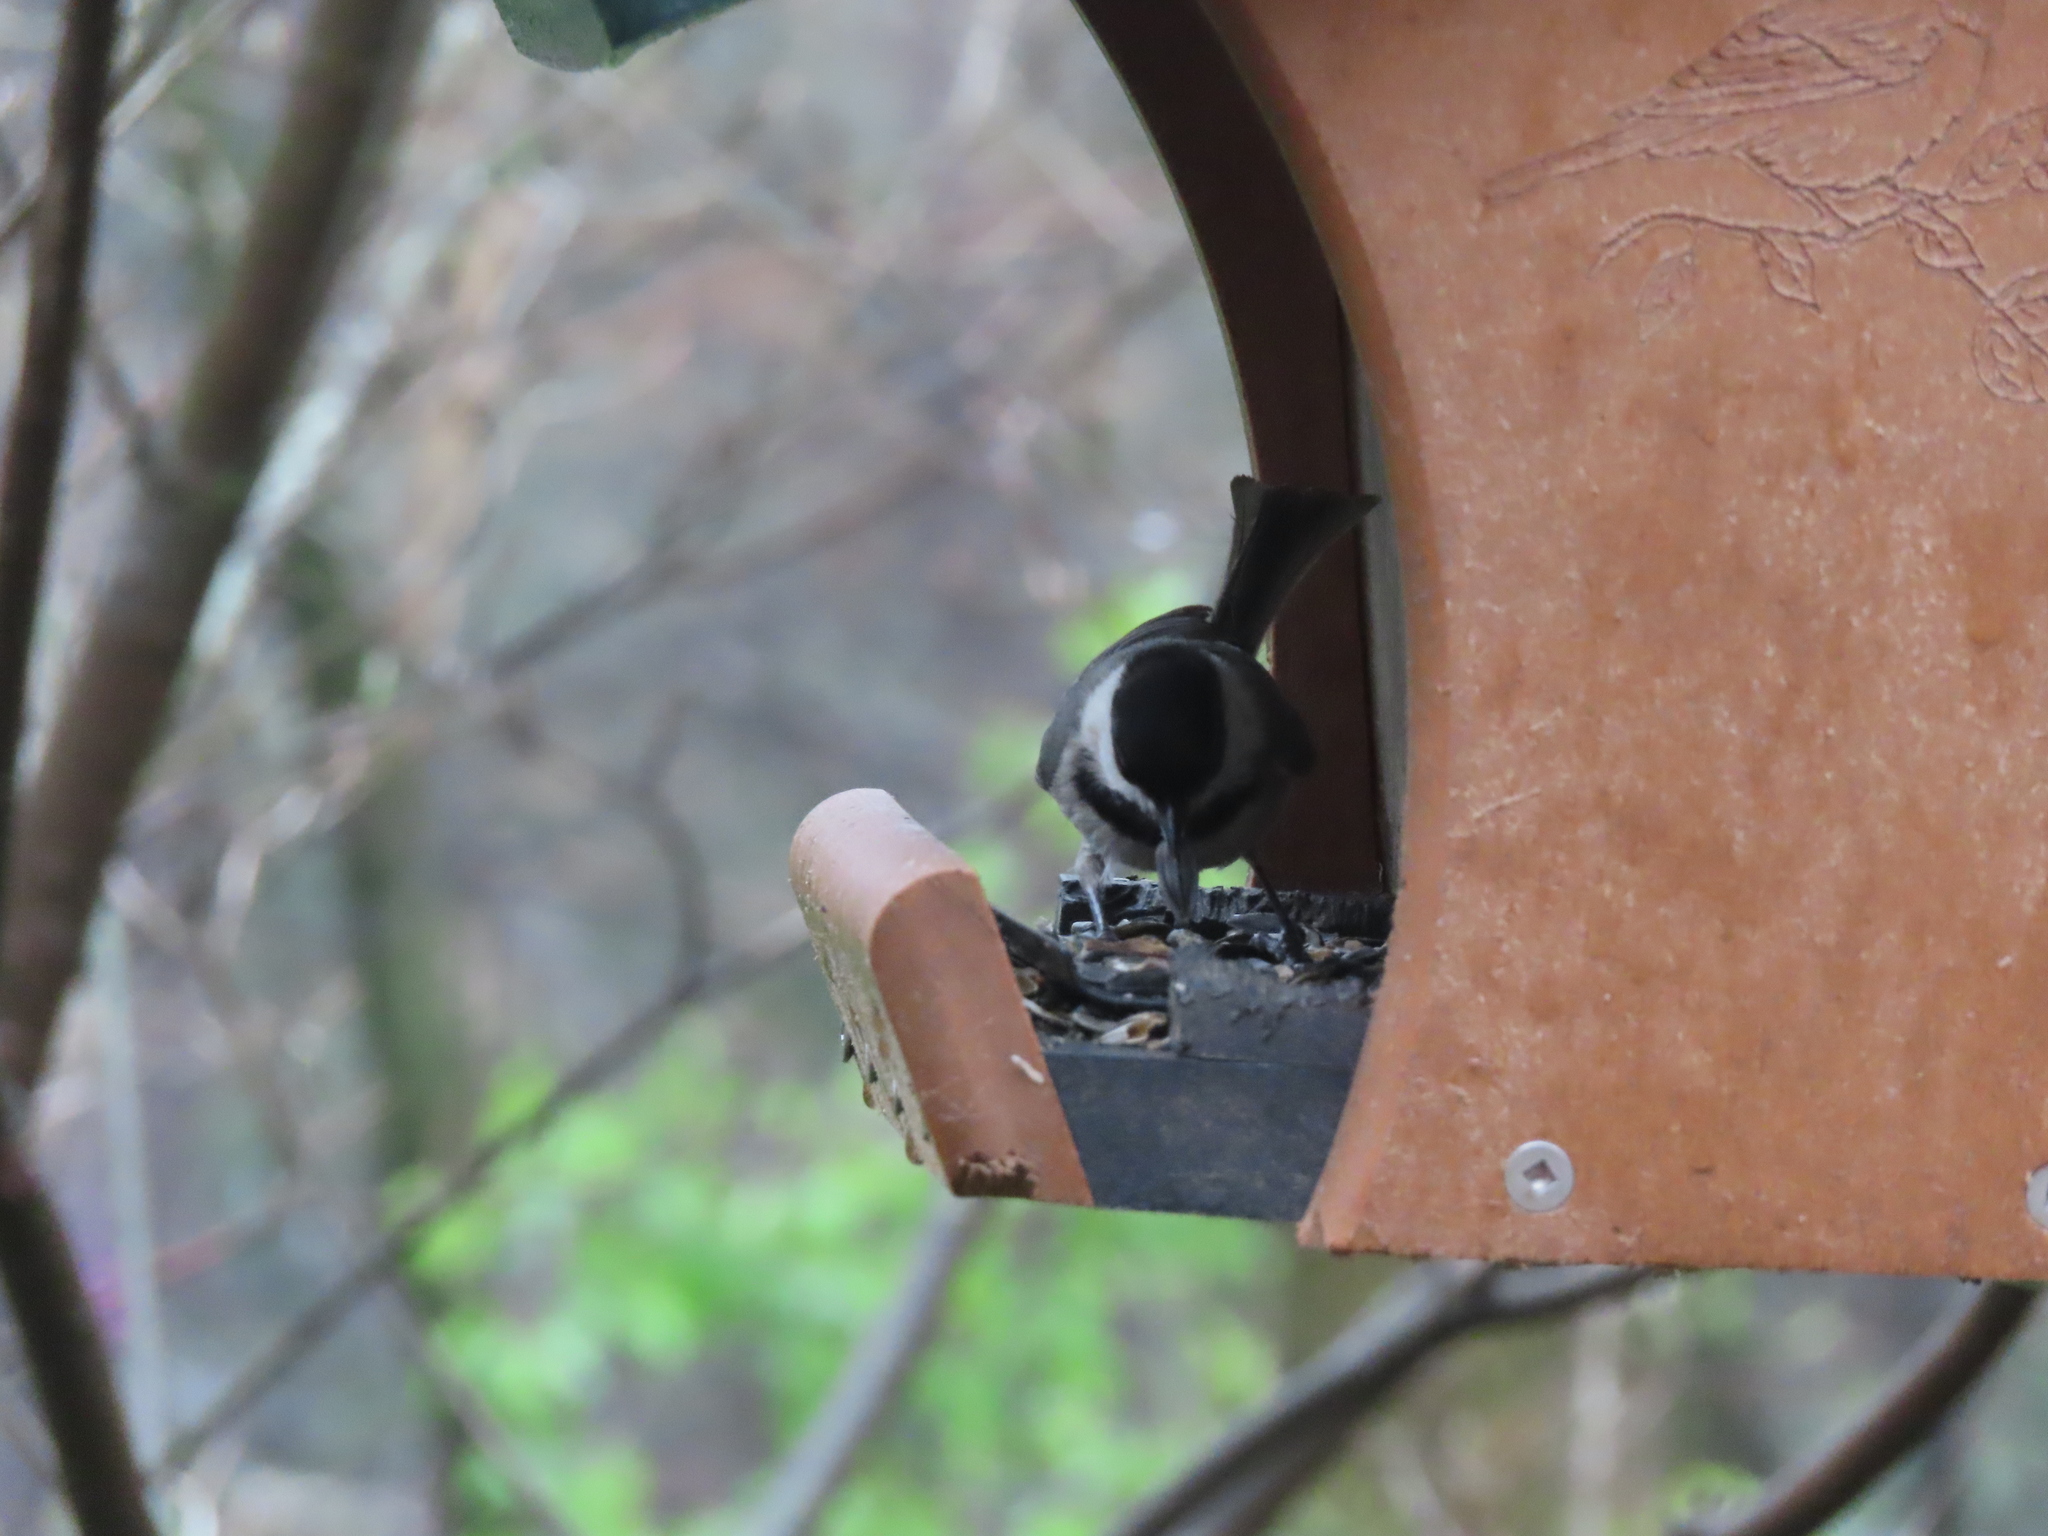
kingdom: Animalia
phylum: Chordata
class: Aves
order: Passeriformes
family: Paridae
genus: Poecile
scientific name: Poecile carolinensis
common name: Carolina chickadee
